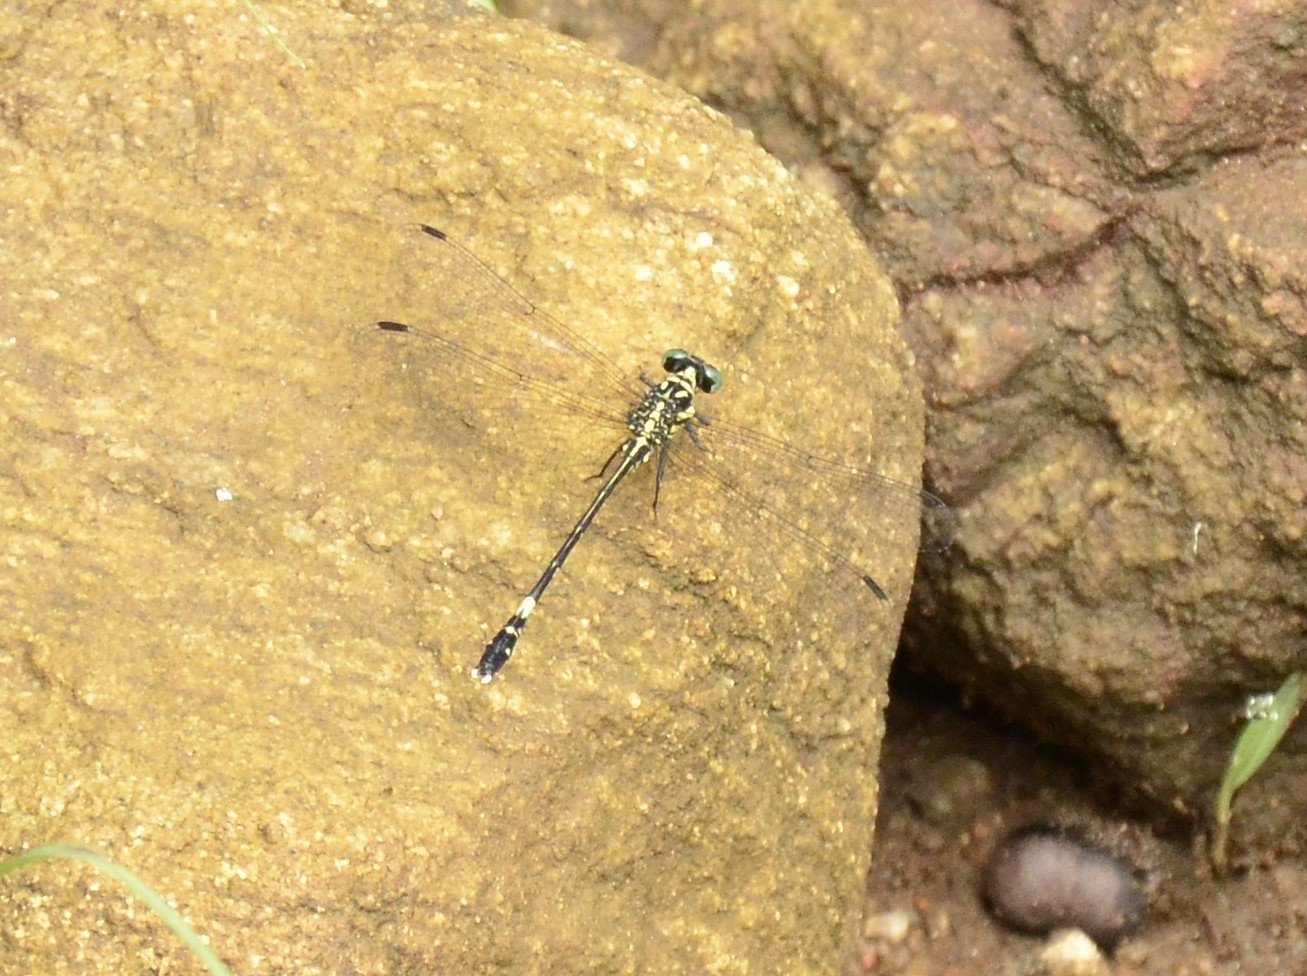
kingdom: Animalia
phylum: Arthropoda
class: Insecta
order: Odonata
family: Gomphidae
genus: Heliogomphus
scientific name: Heliogomphus promelas
